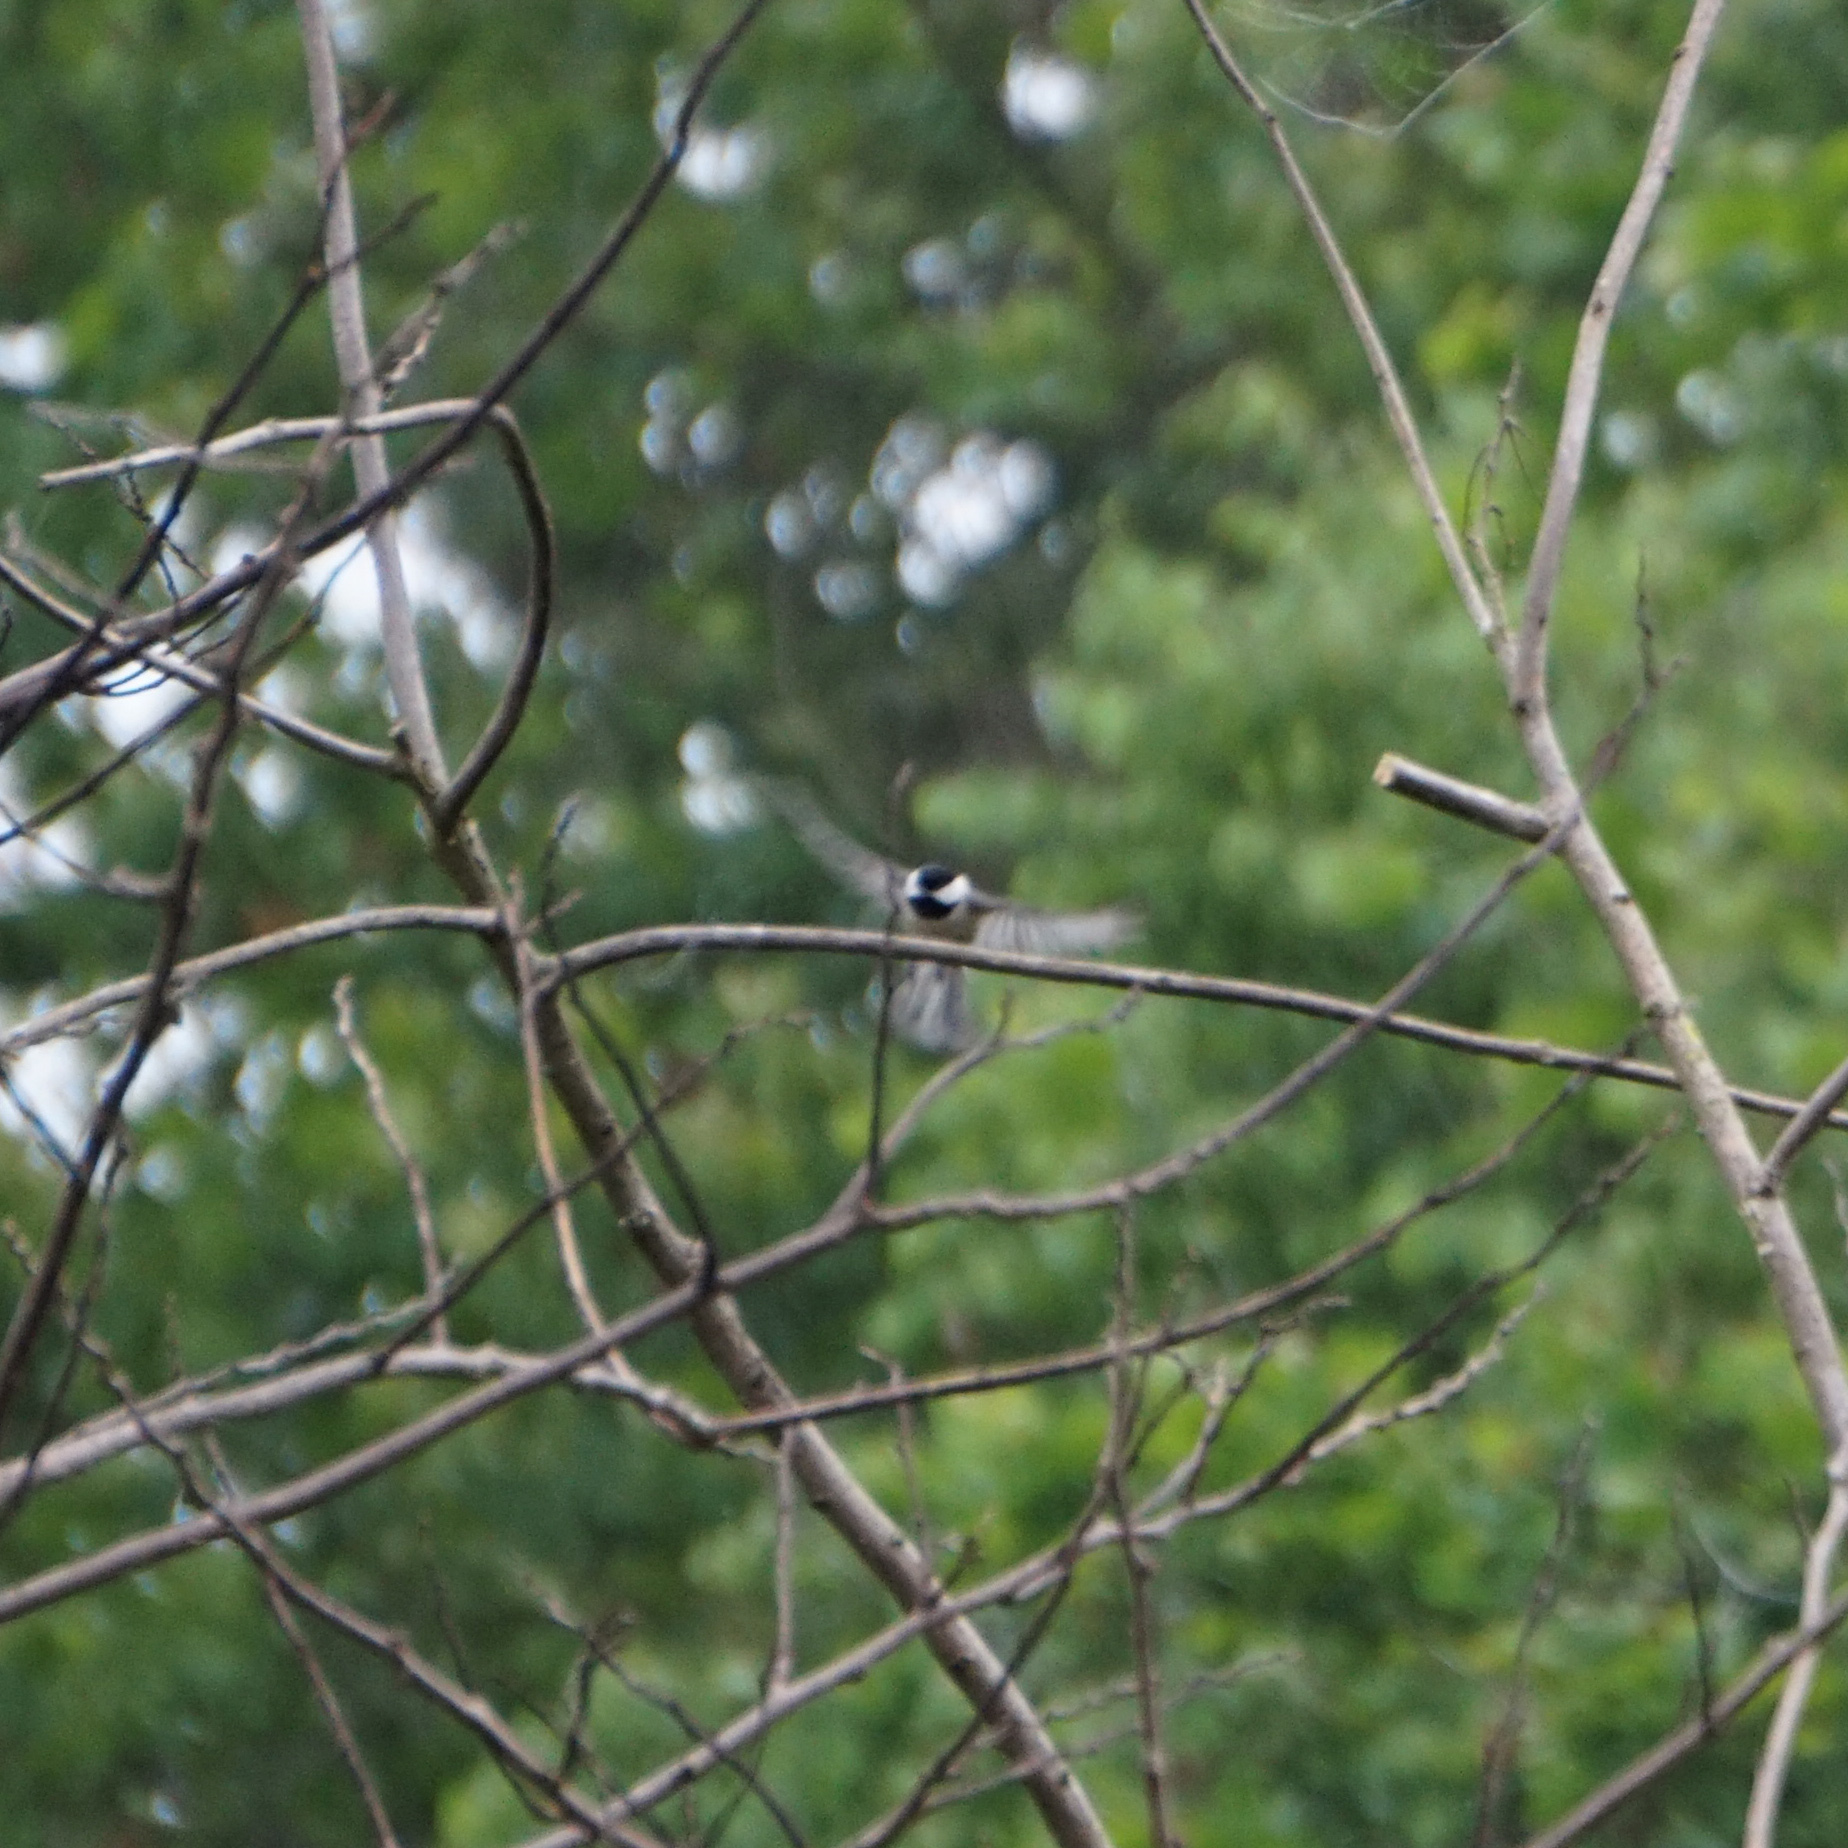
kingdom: Animalia
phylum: Chordata
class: Aves
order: Passeriformes
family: Paridae
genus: Poecile
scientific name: Poecile carolinensis
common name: Carolina chickadee
